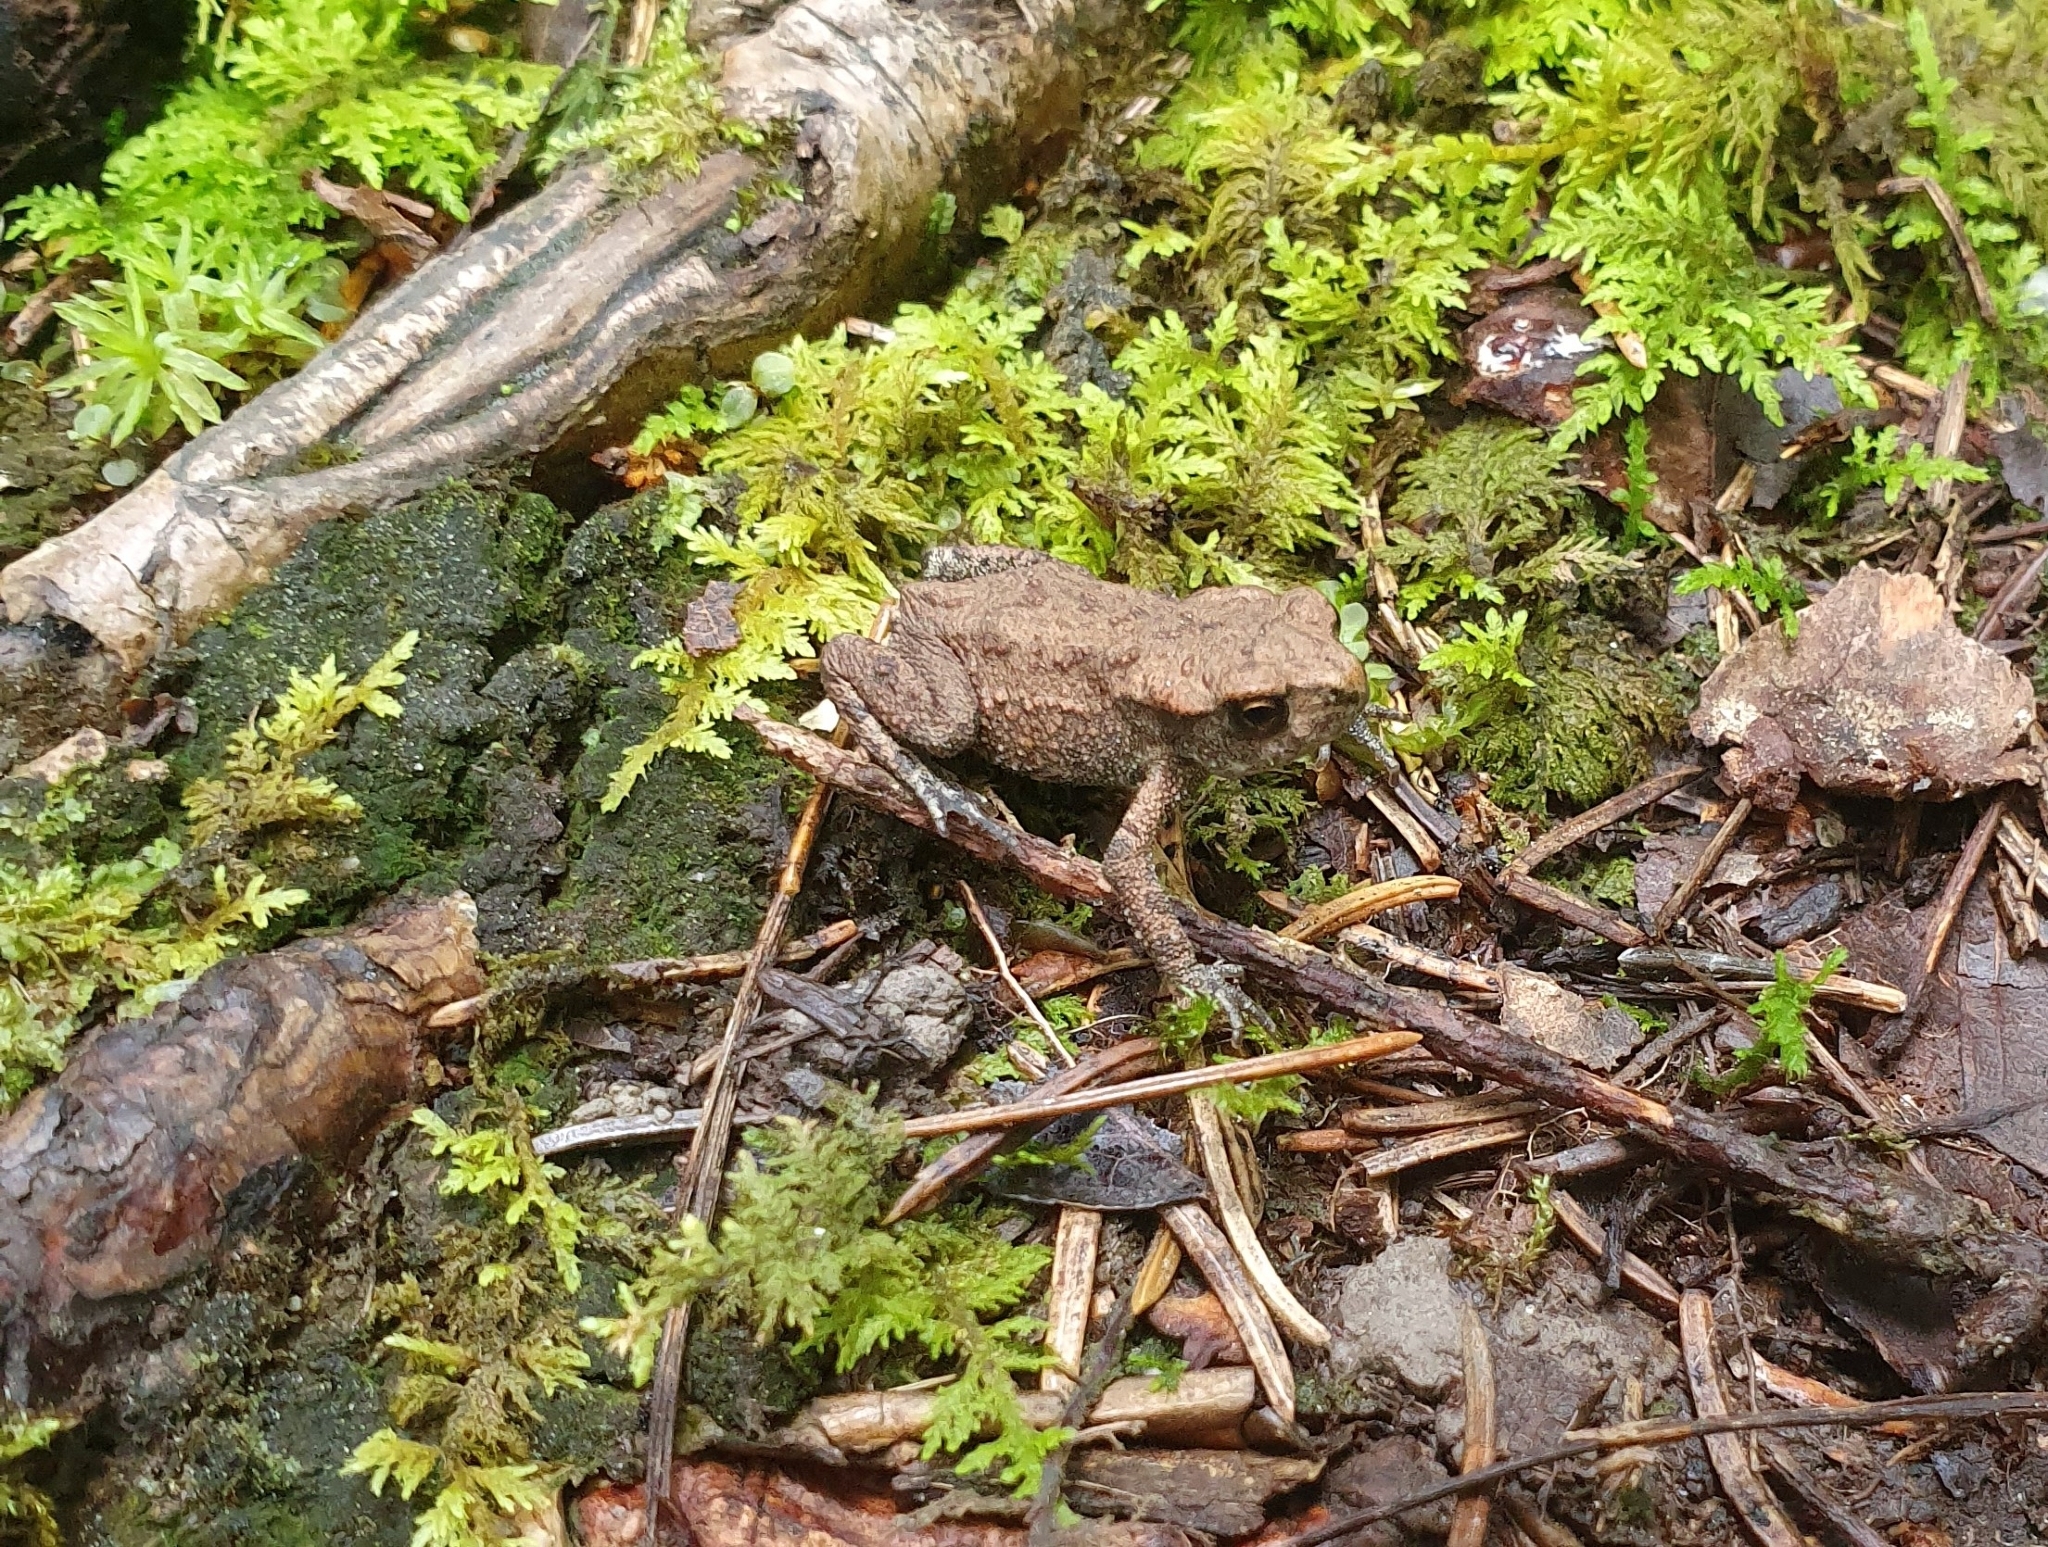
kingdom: Animalia
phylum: Chordata
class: Amphibia
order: Anura
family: Bufonidae
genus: Bufo
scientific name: Bufo bufo
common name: Common toad
